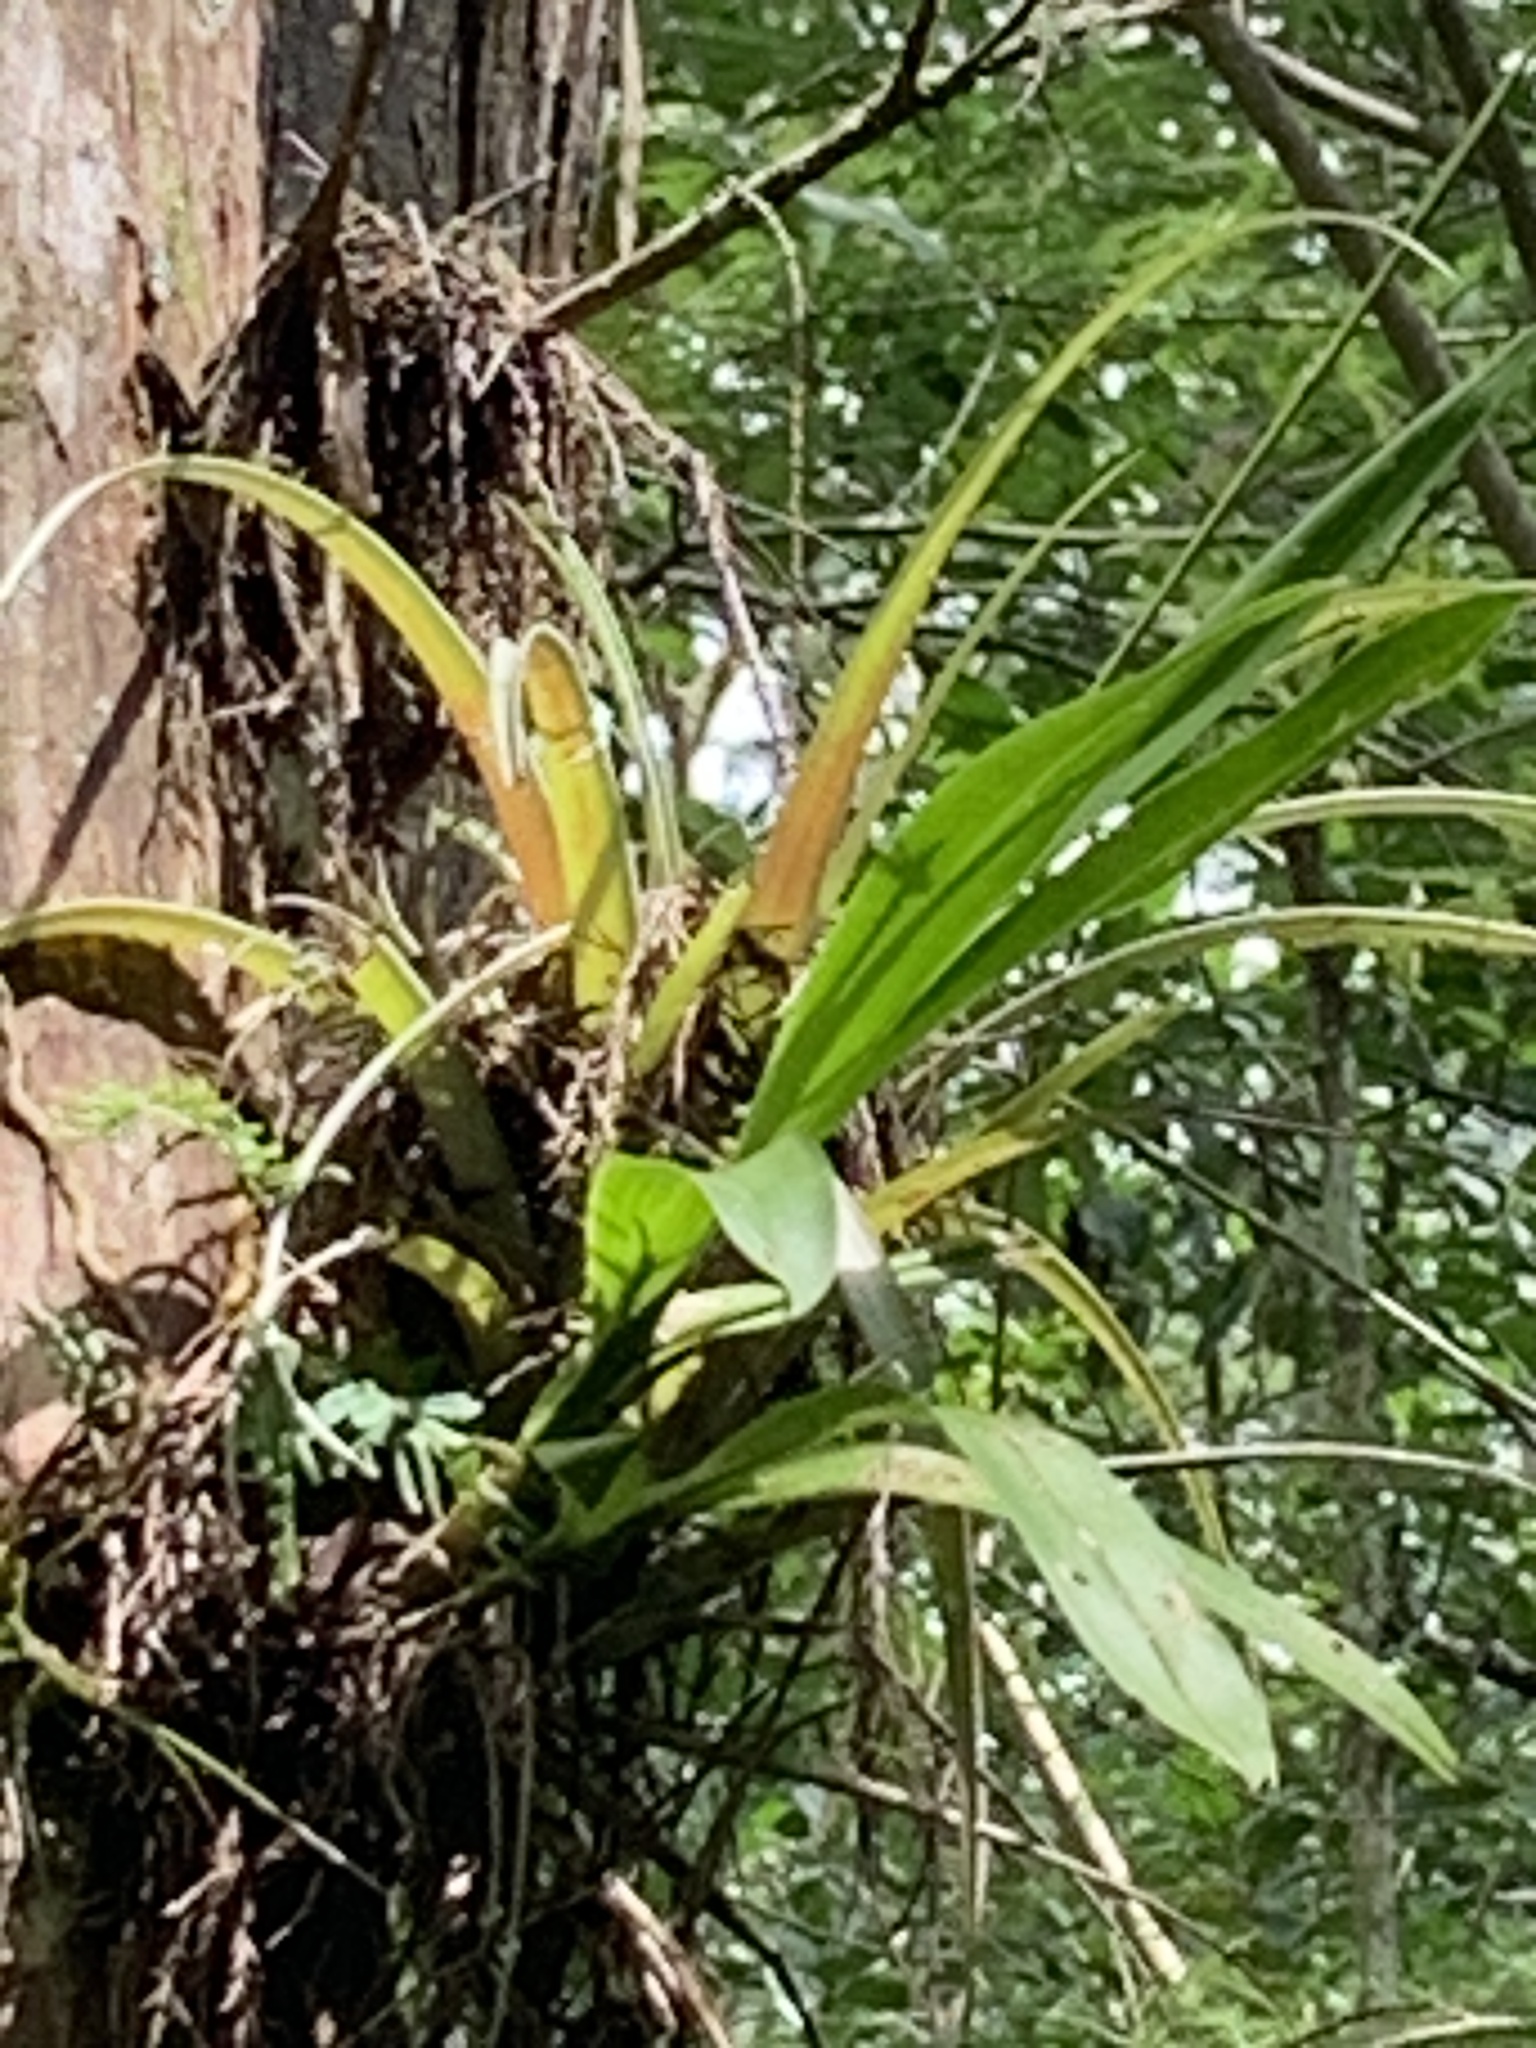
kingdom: Plantae
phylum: Tracheophyta
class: Liliopsida
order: Asparagales
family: Orchidaceae
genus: Polystachya
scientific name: Polystachya concreta
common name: Greater yellowspike orchid
